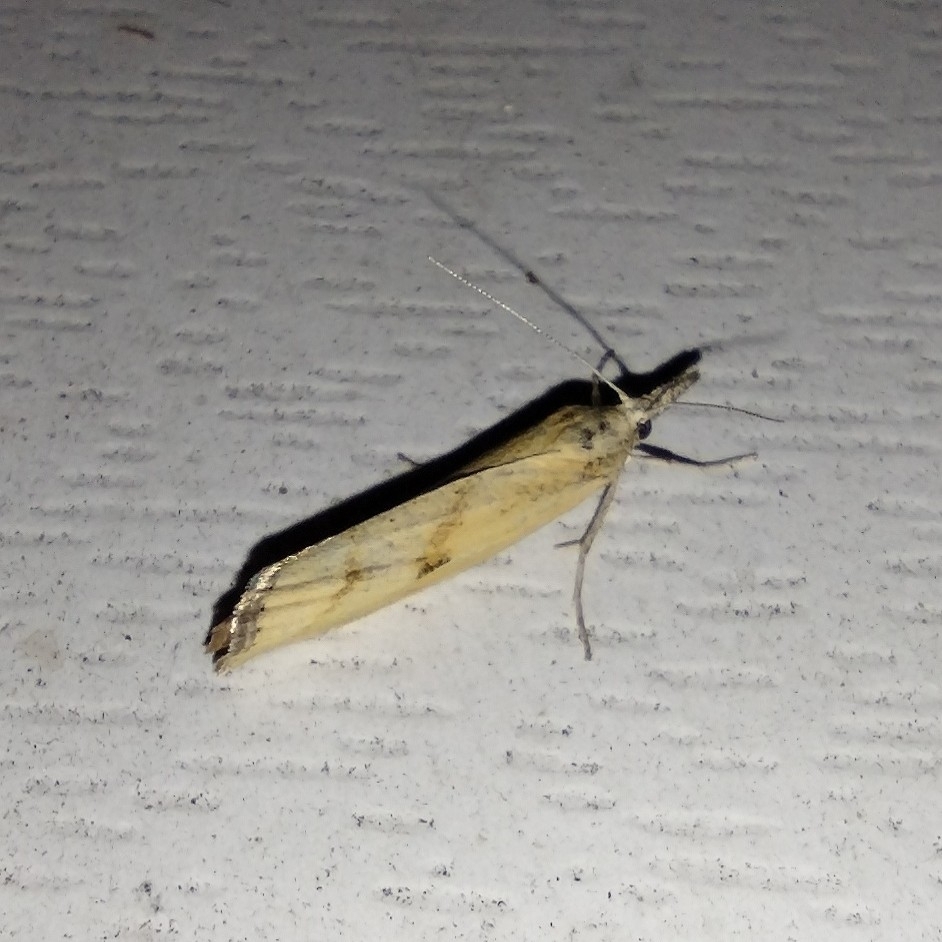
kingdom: Animalia
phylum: Arthropoda
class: Insecta
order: Lepidoptera
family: Crambidae
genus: Agriphila
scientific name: Agriphila inquinatella
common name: Barred grass-veneer
